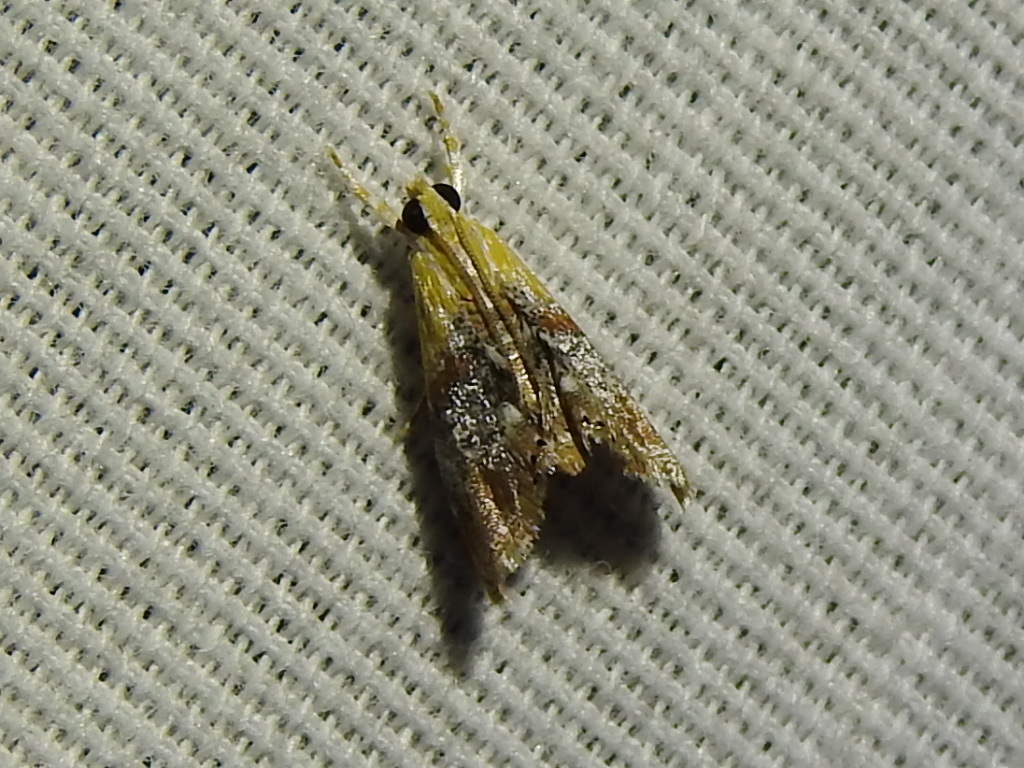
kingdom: Animalia
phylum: Arthropoda
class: Insecta
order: Lepidoptera
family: Crambidae
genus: Dicymolomia
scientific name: Dicymolomia julianalis
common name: Julia's dicymolomia moth
